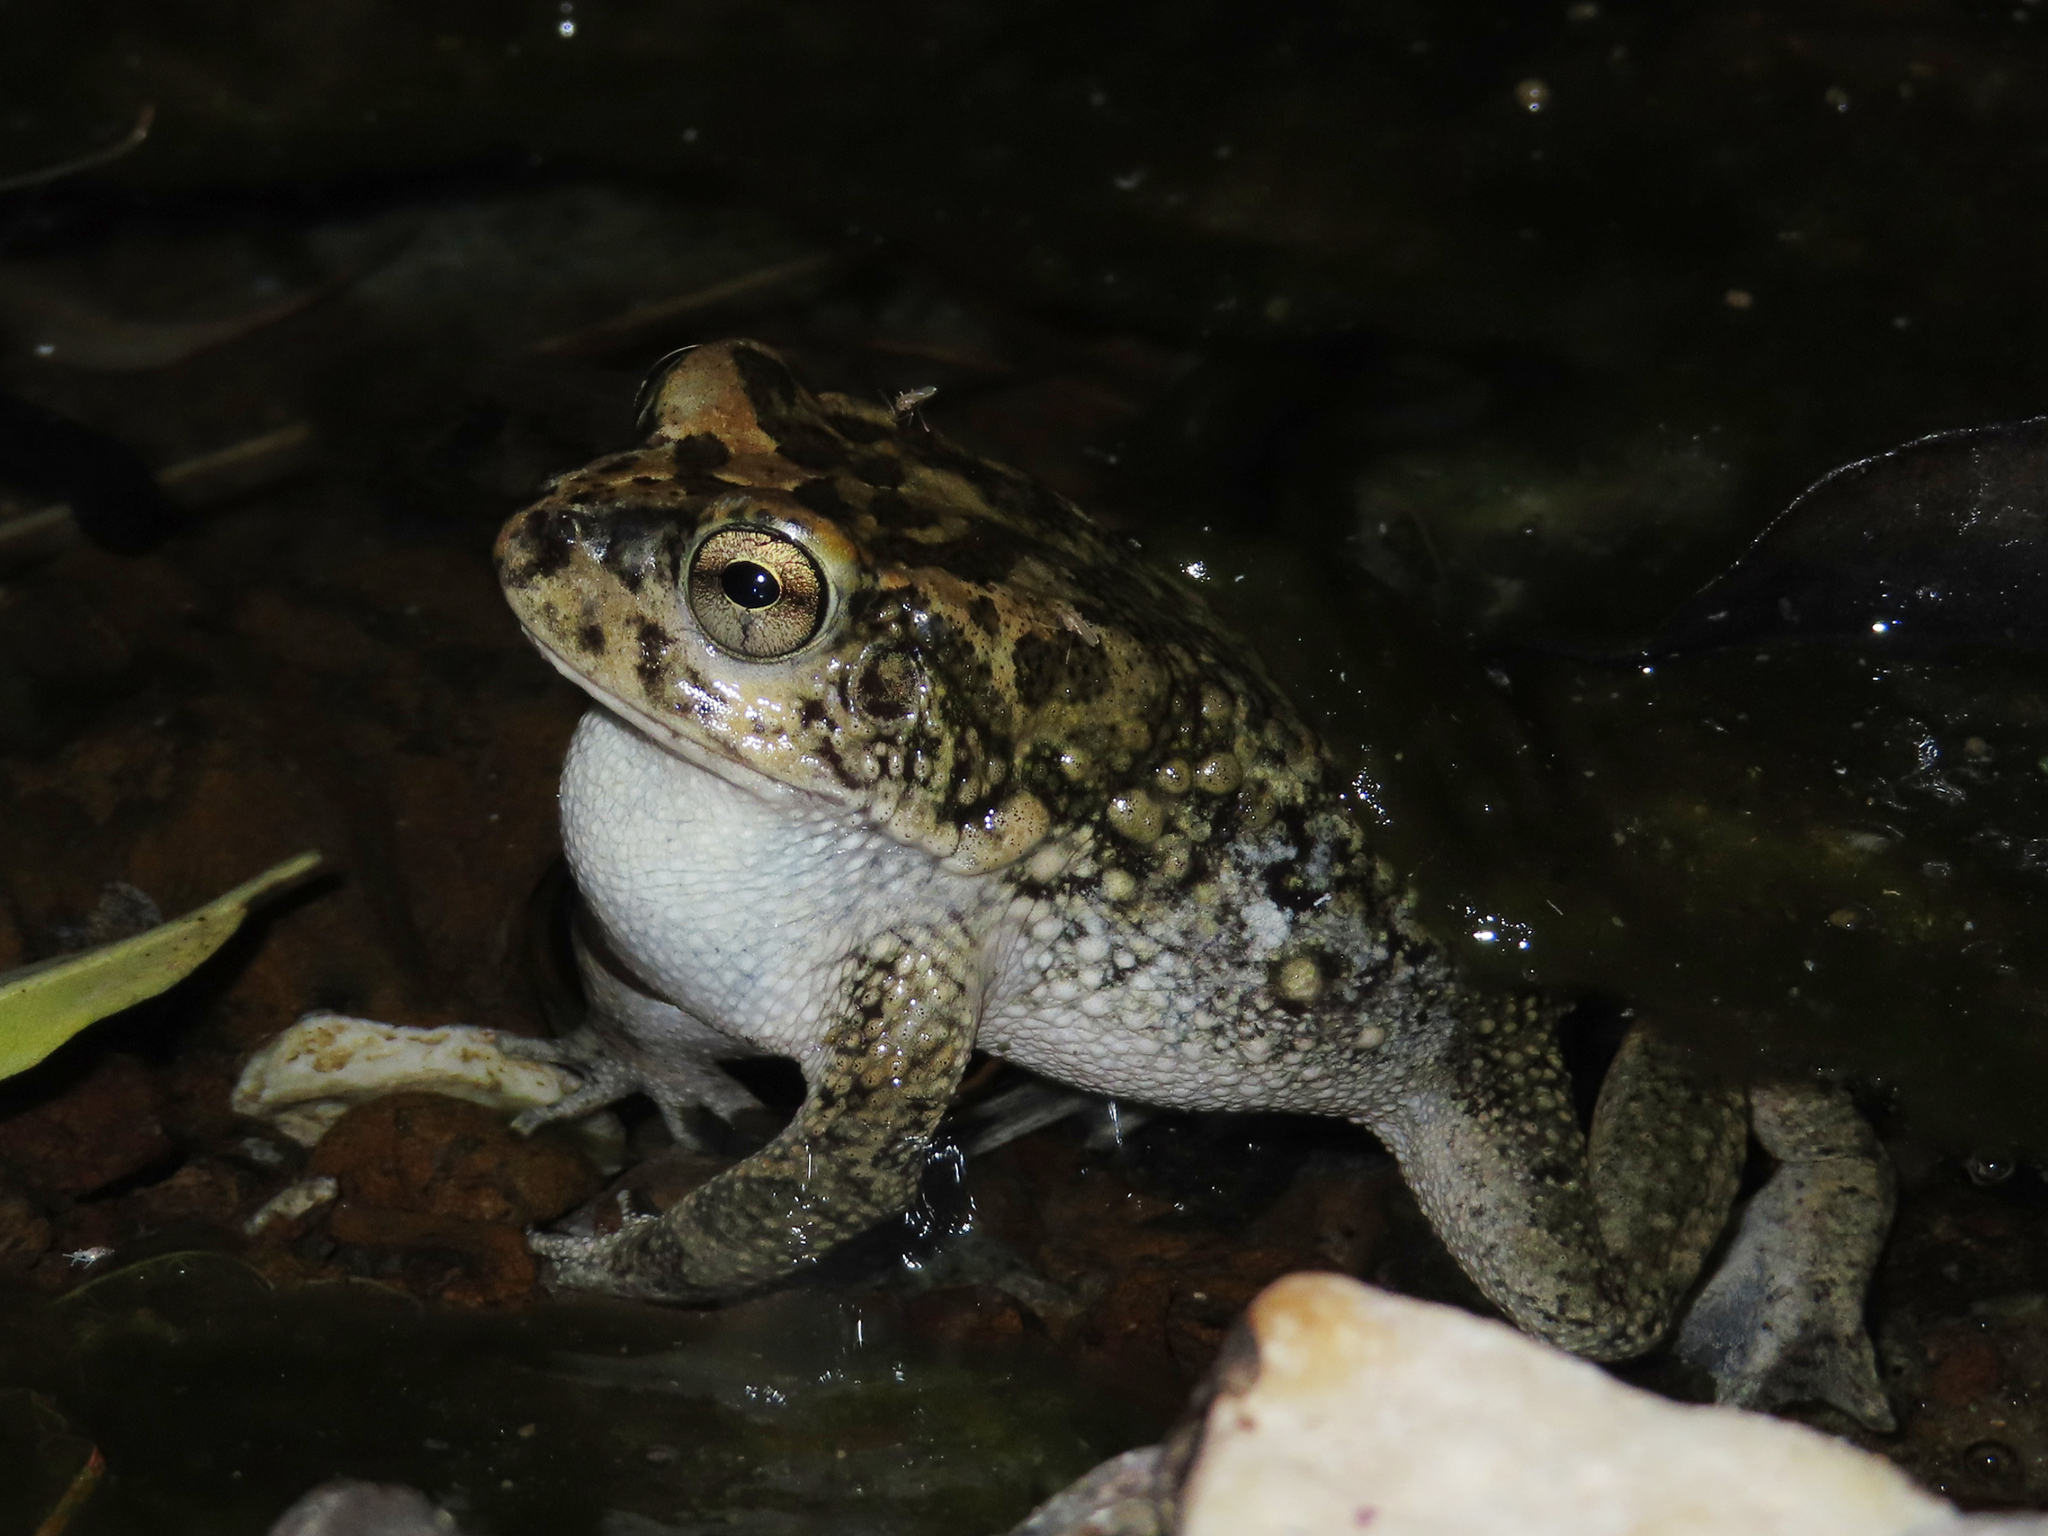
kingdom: Animalia
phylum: Chordata
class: Amphibia
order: Anura
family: Bufonidae
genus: Sclerophrys
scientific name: Sclerophrys arabica
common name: Arabian toad
